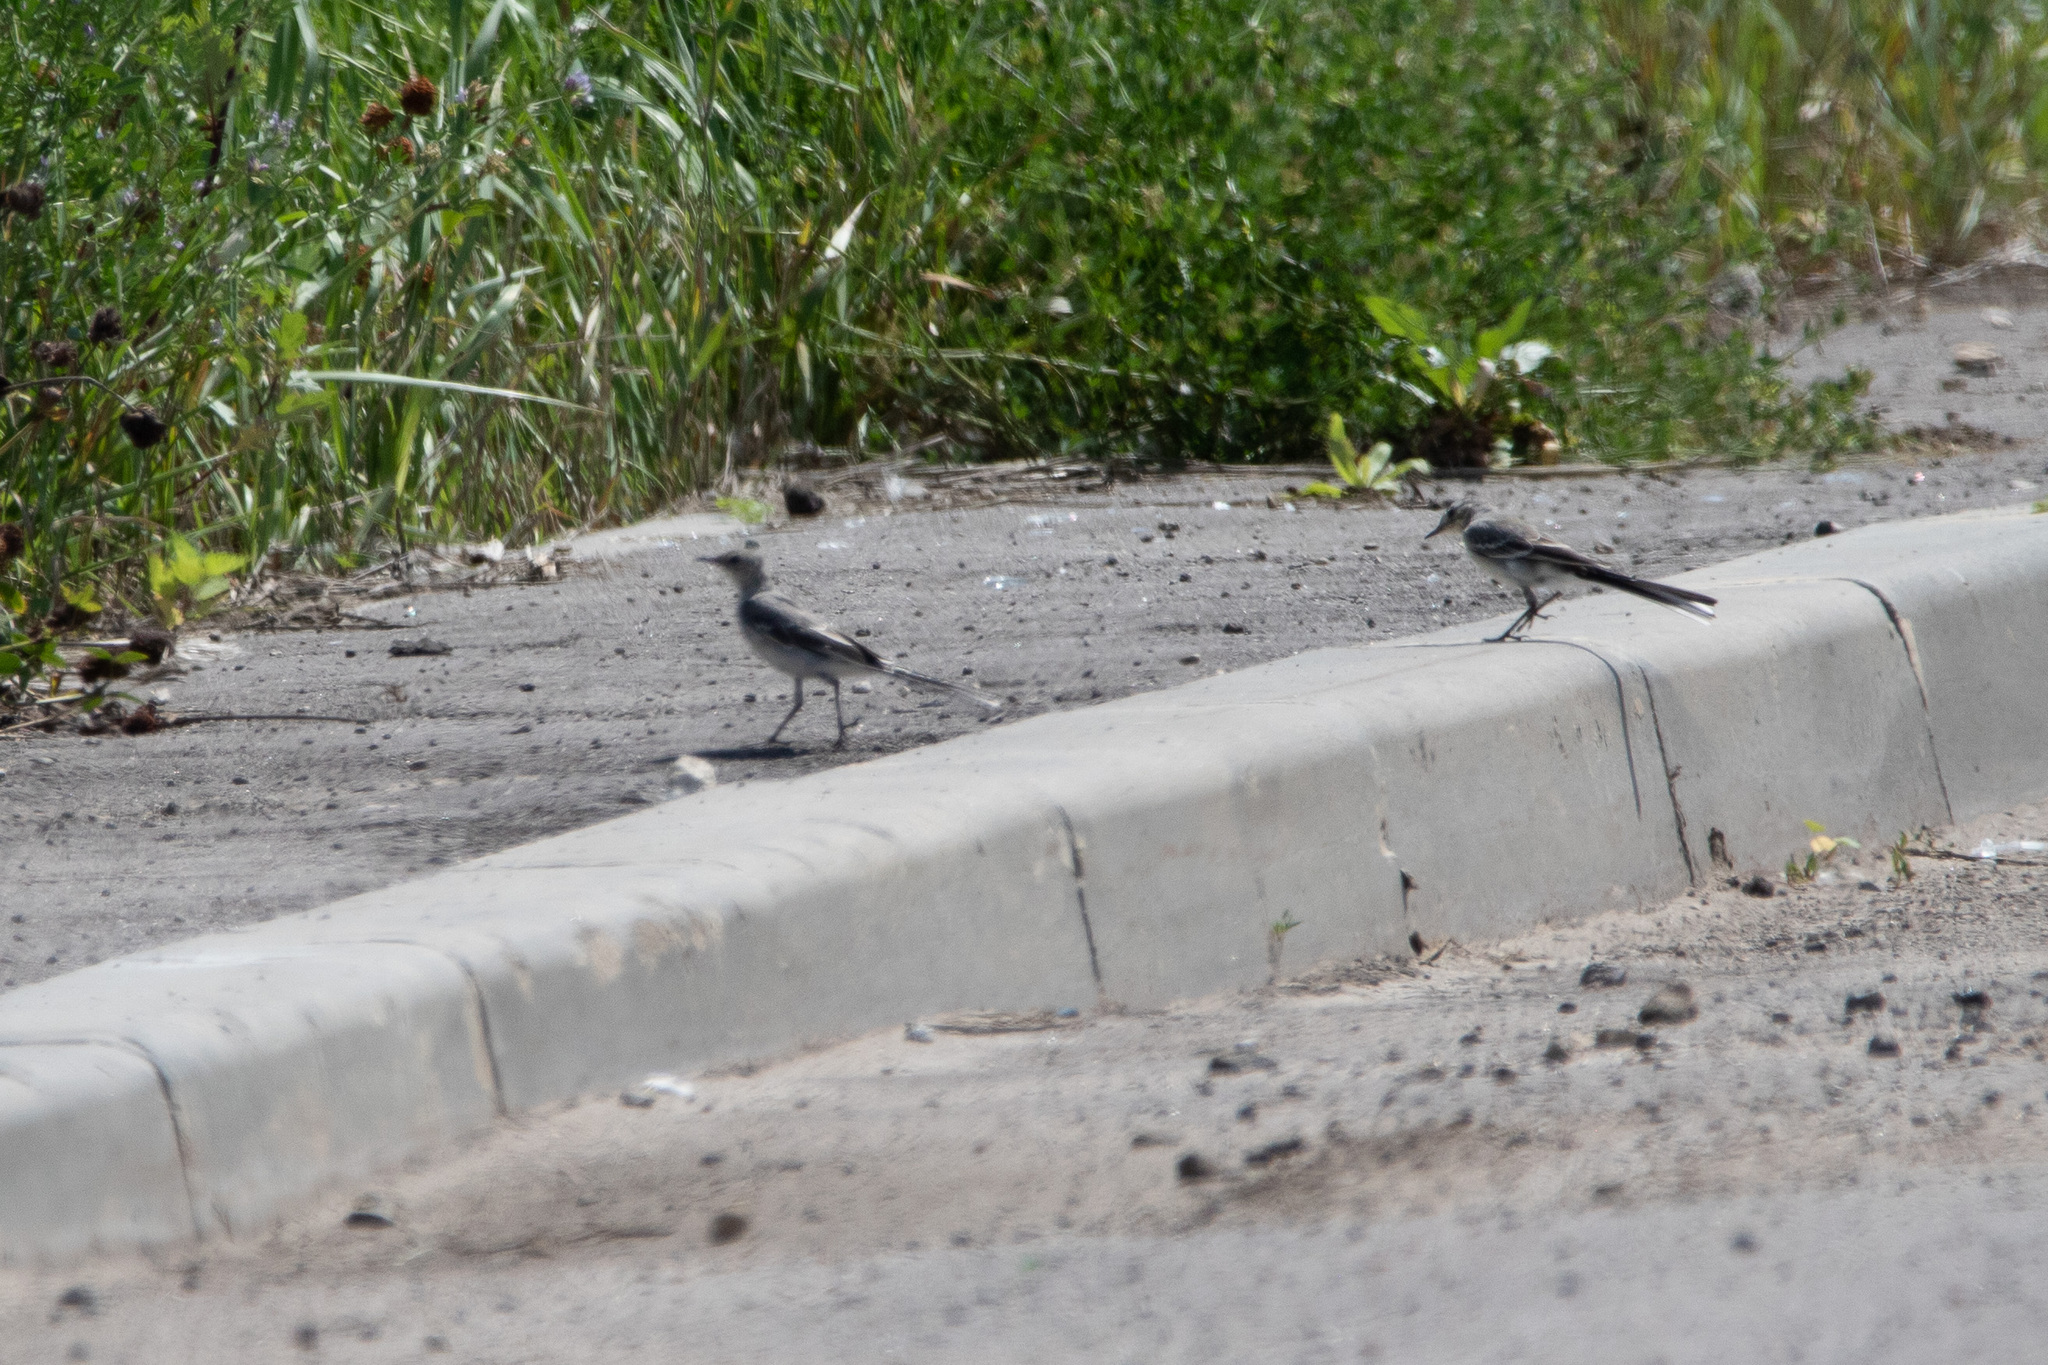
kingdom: Animalia
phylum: Chordata
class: Aves
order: Passeriformes
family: Motacillidae
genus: Motacilla
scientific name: Motacilla alba
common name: White wagtail
